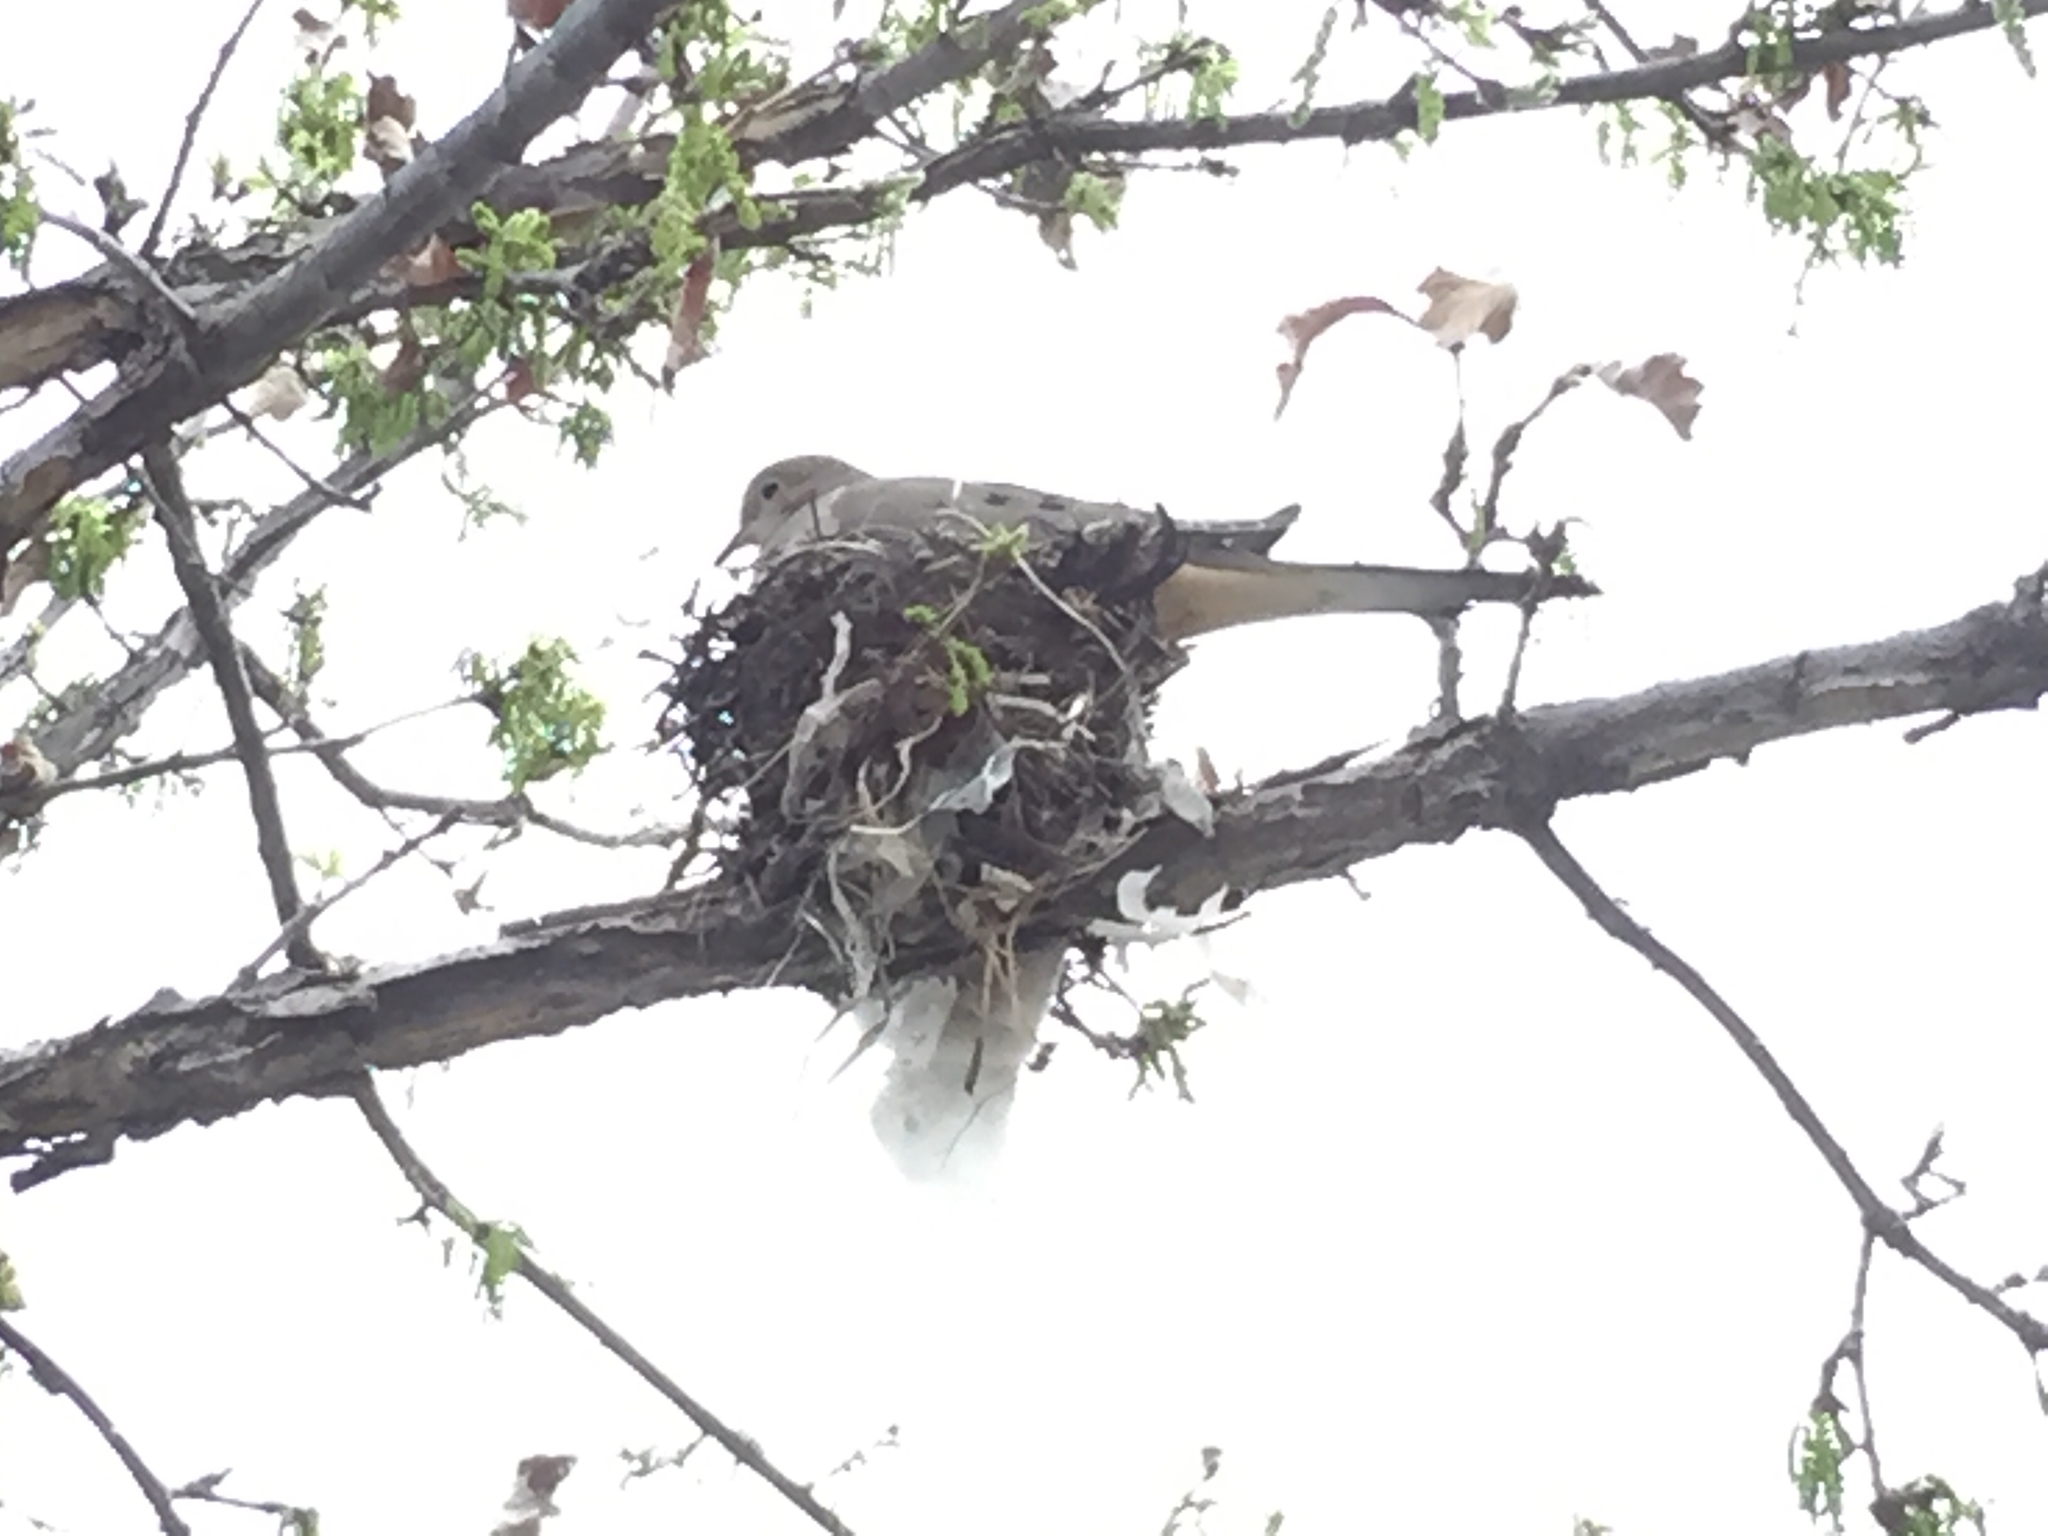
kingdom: Animalia
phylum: Chordata
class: Aves
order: Columbiformes
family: Columbidae
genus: Zenaida
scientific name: Zenaida macroura
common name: Mourning dove
